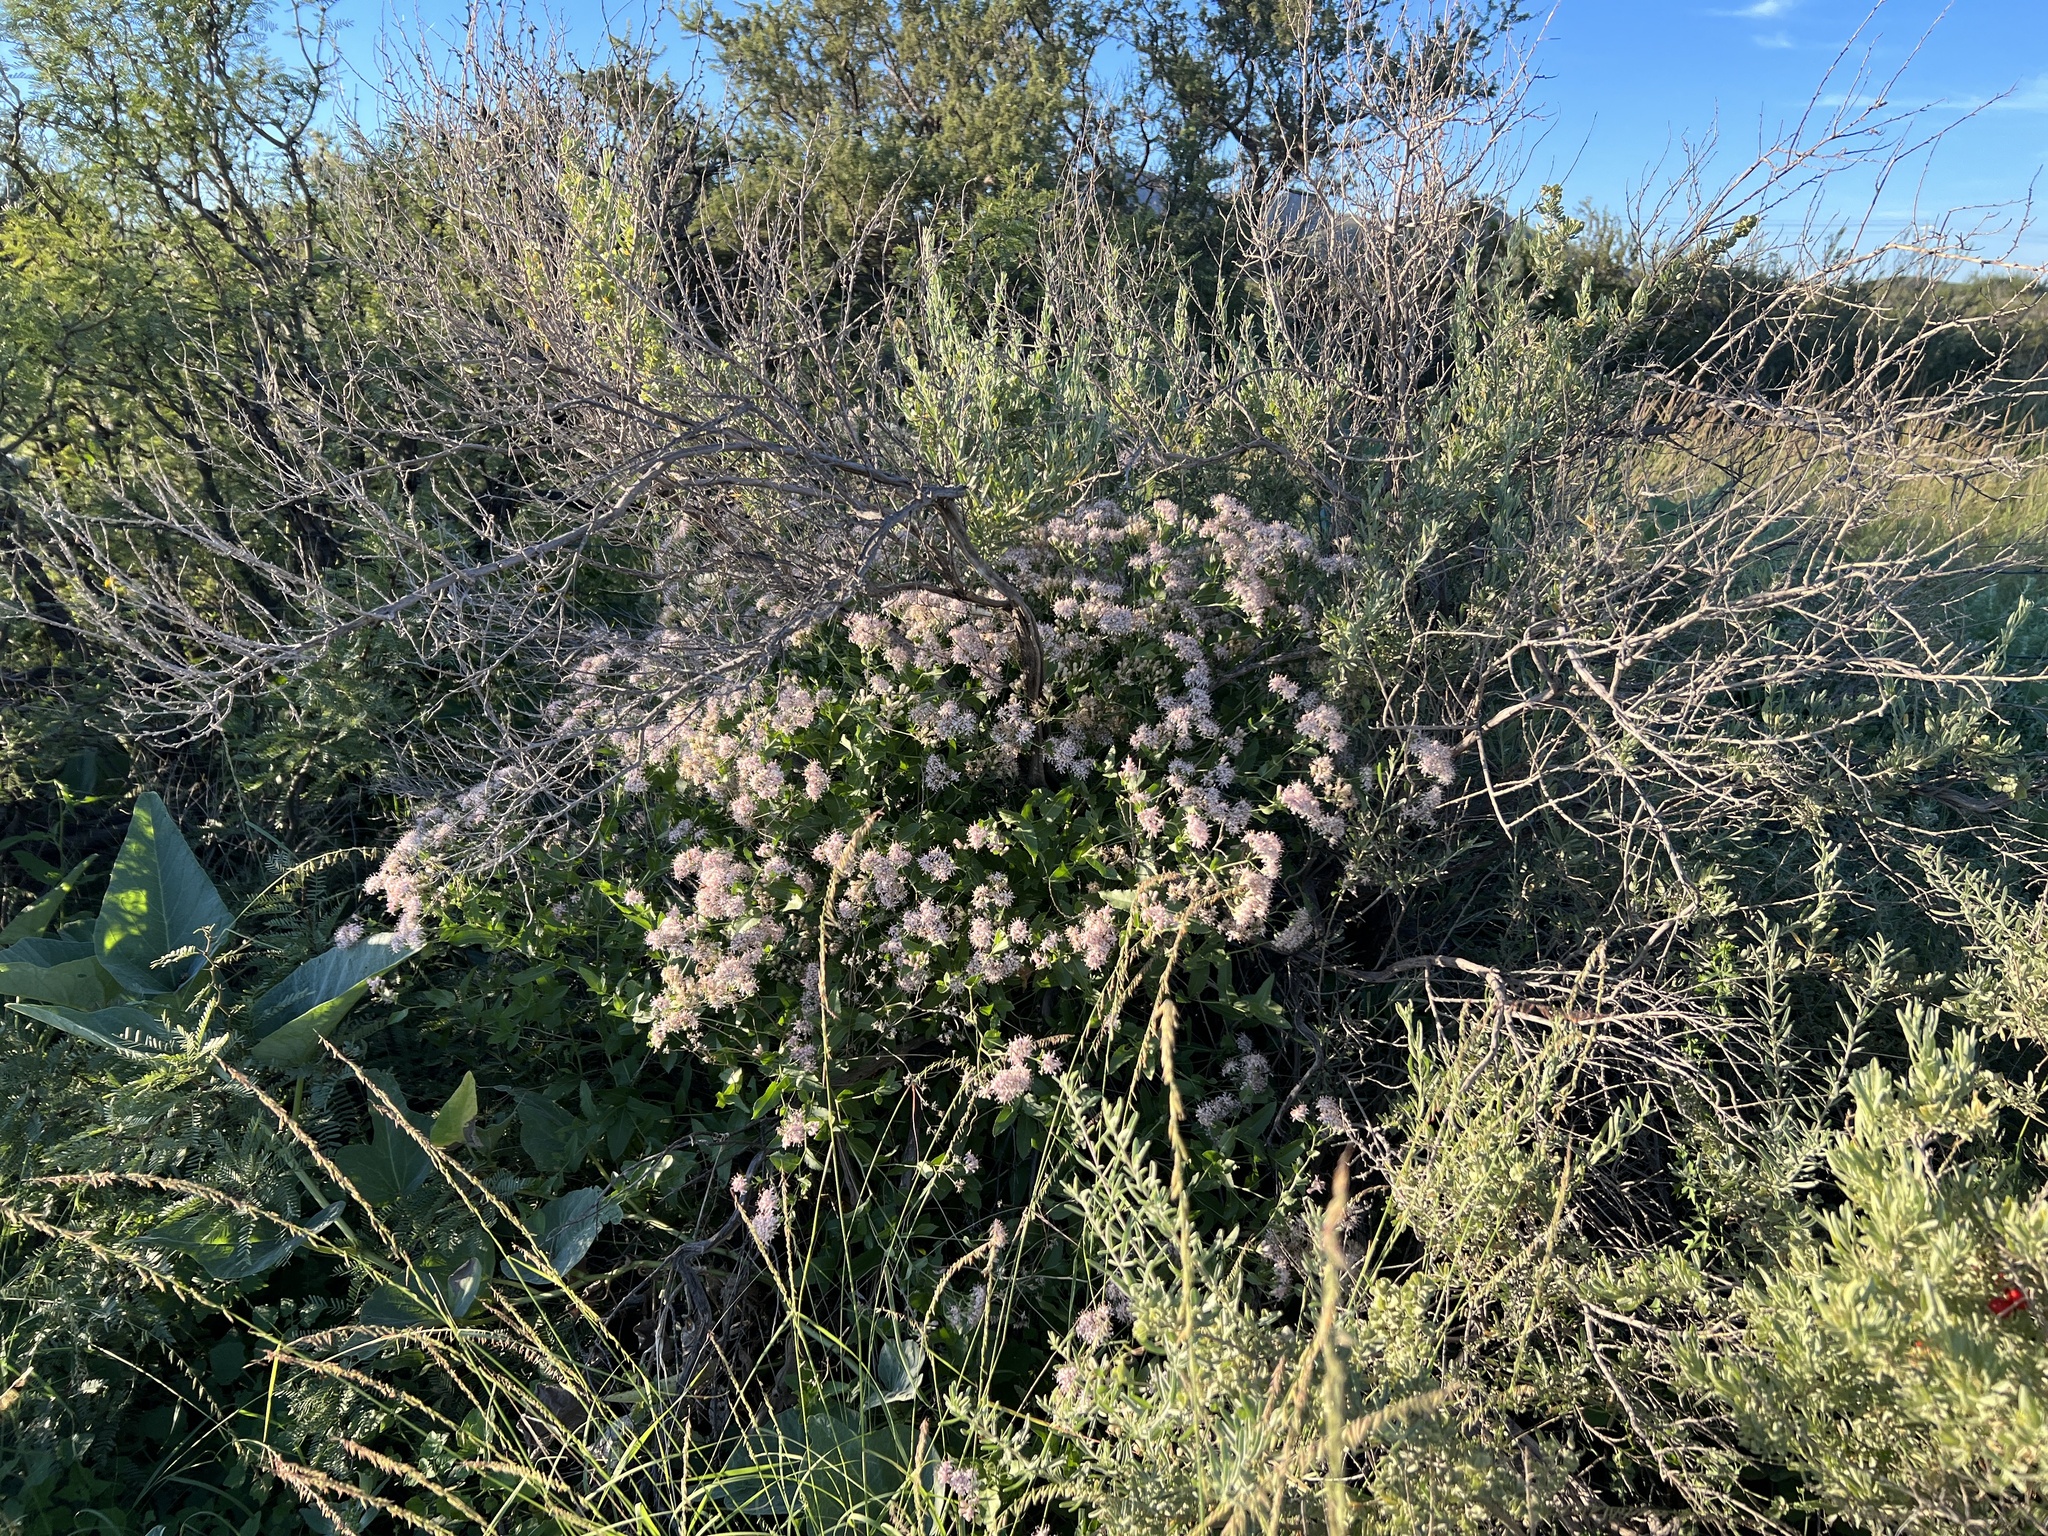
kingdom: Plantae
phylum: Tracheophyta
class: Magnoliopsida
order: Asterales
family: Asteraceae
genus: Acourtia
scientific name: Acourtia wrightii
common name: Brownfoot
